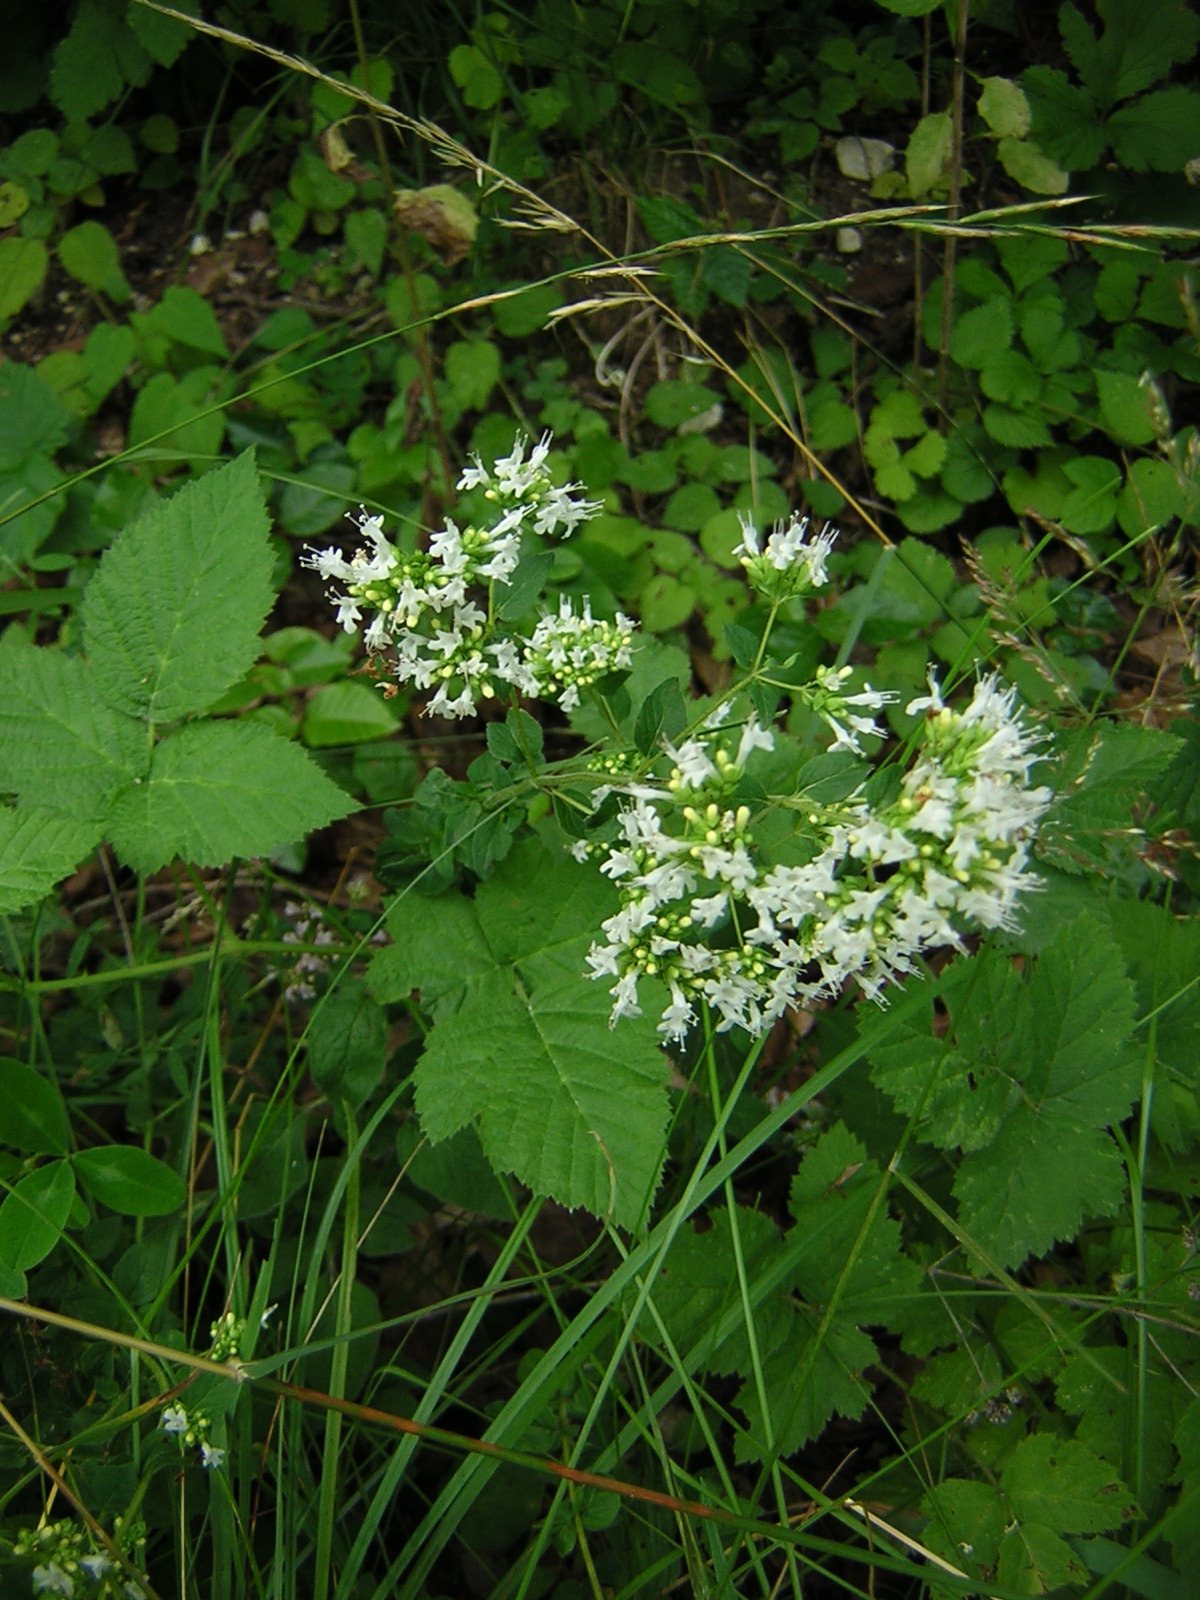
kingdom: Plantae
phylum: Tracheophyta
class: Magnoliopsida
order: Lamiales
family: Lamiaceae
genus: Origanum
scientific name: Origanum vulgare
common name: Wild marjoram
